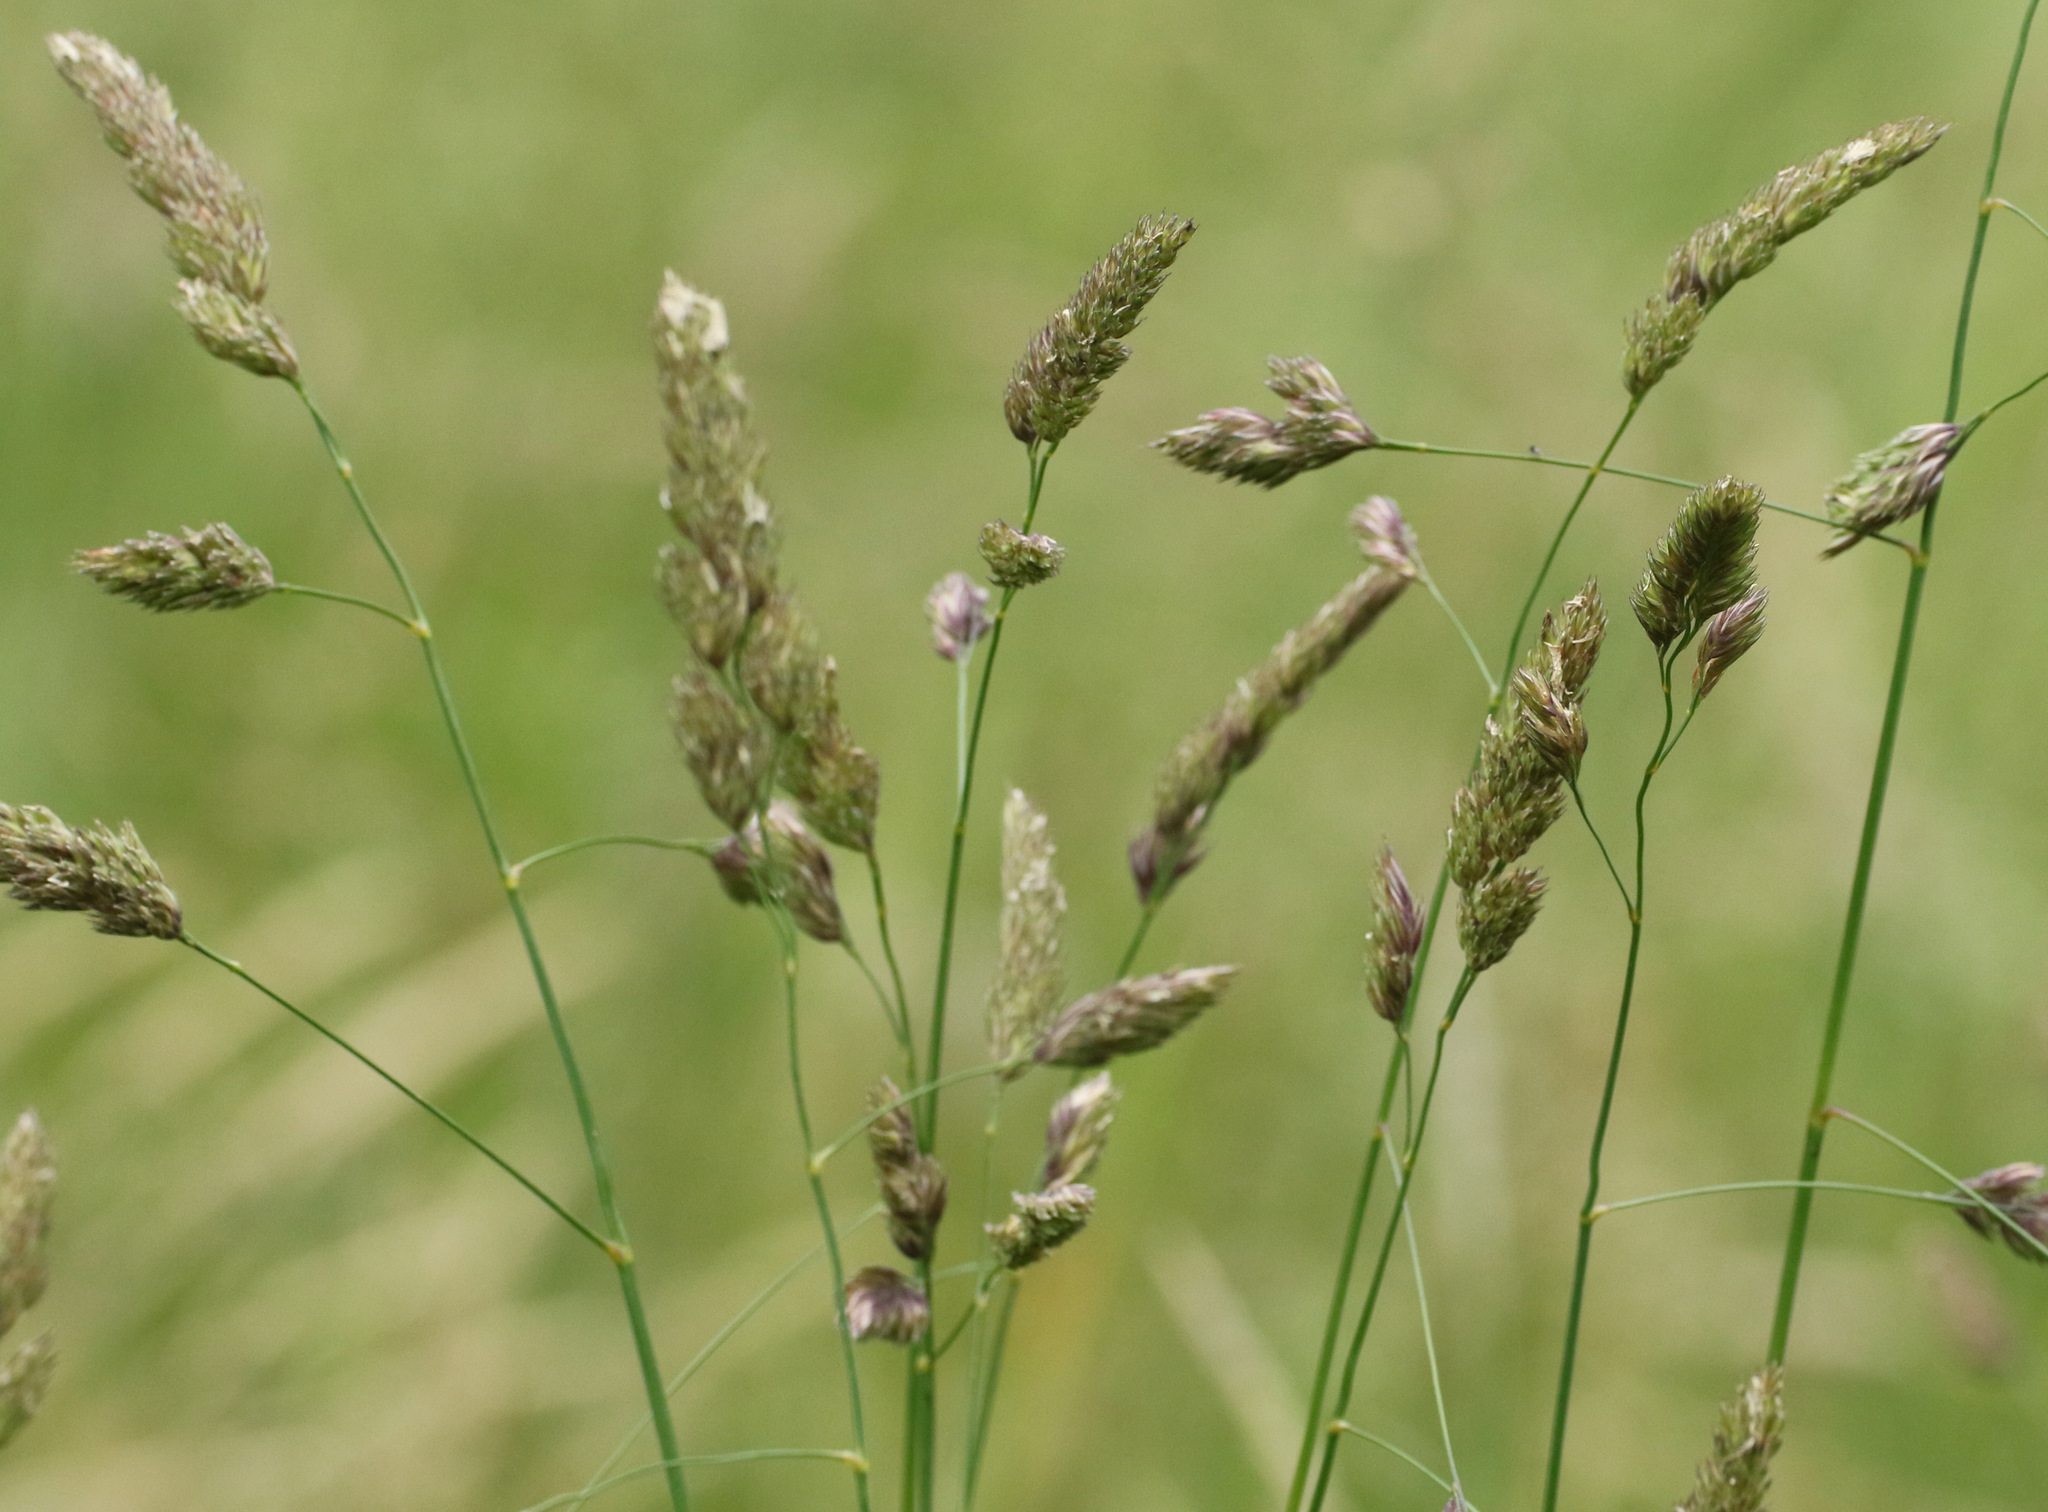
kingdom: Plantae
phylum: Tracheophyta
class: Liliopsida
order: Poales
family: Poaceae
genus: Dactylis
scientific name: Dactylis glomerata
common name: Orchardgrass
